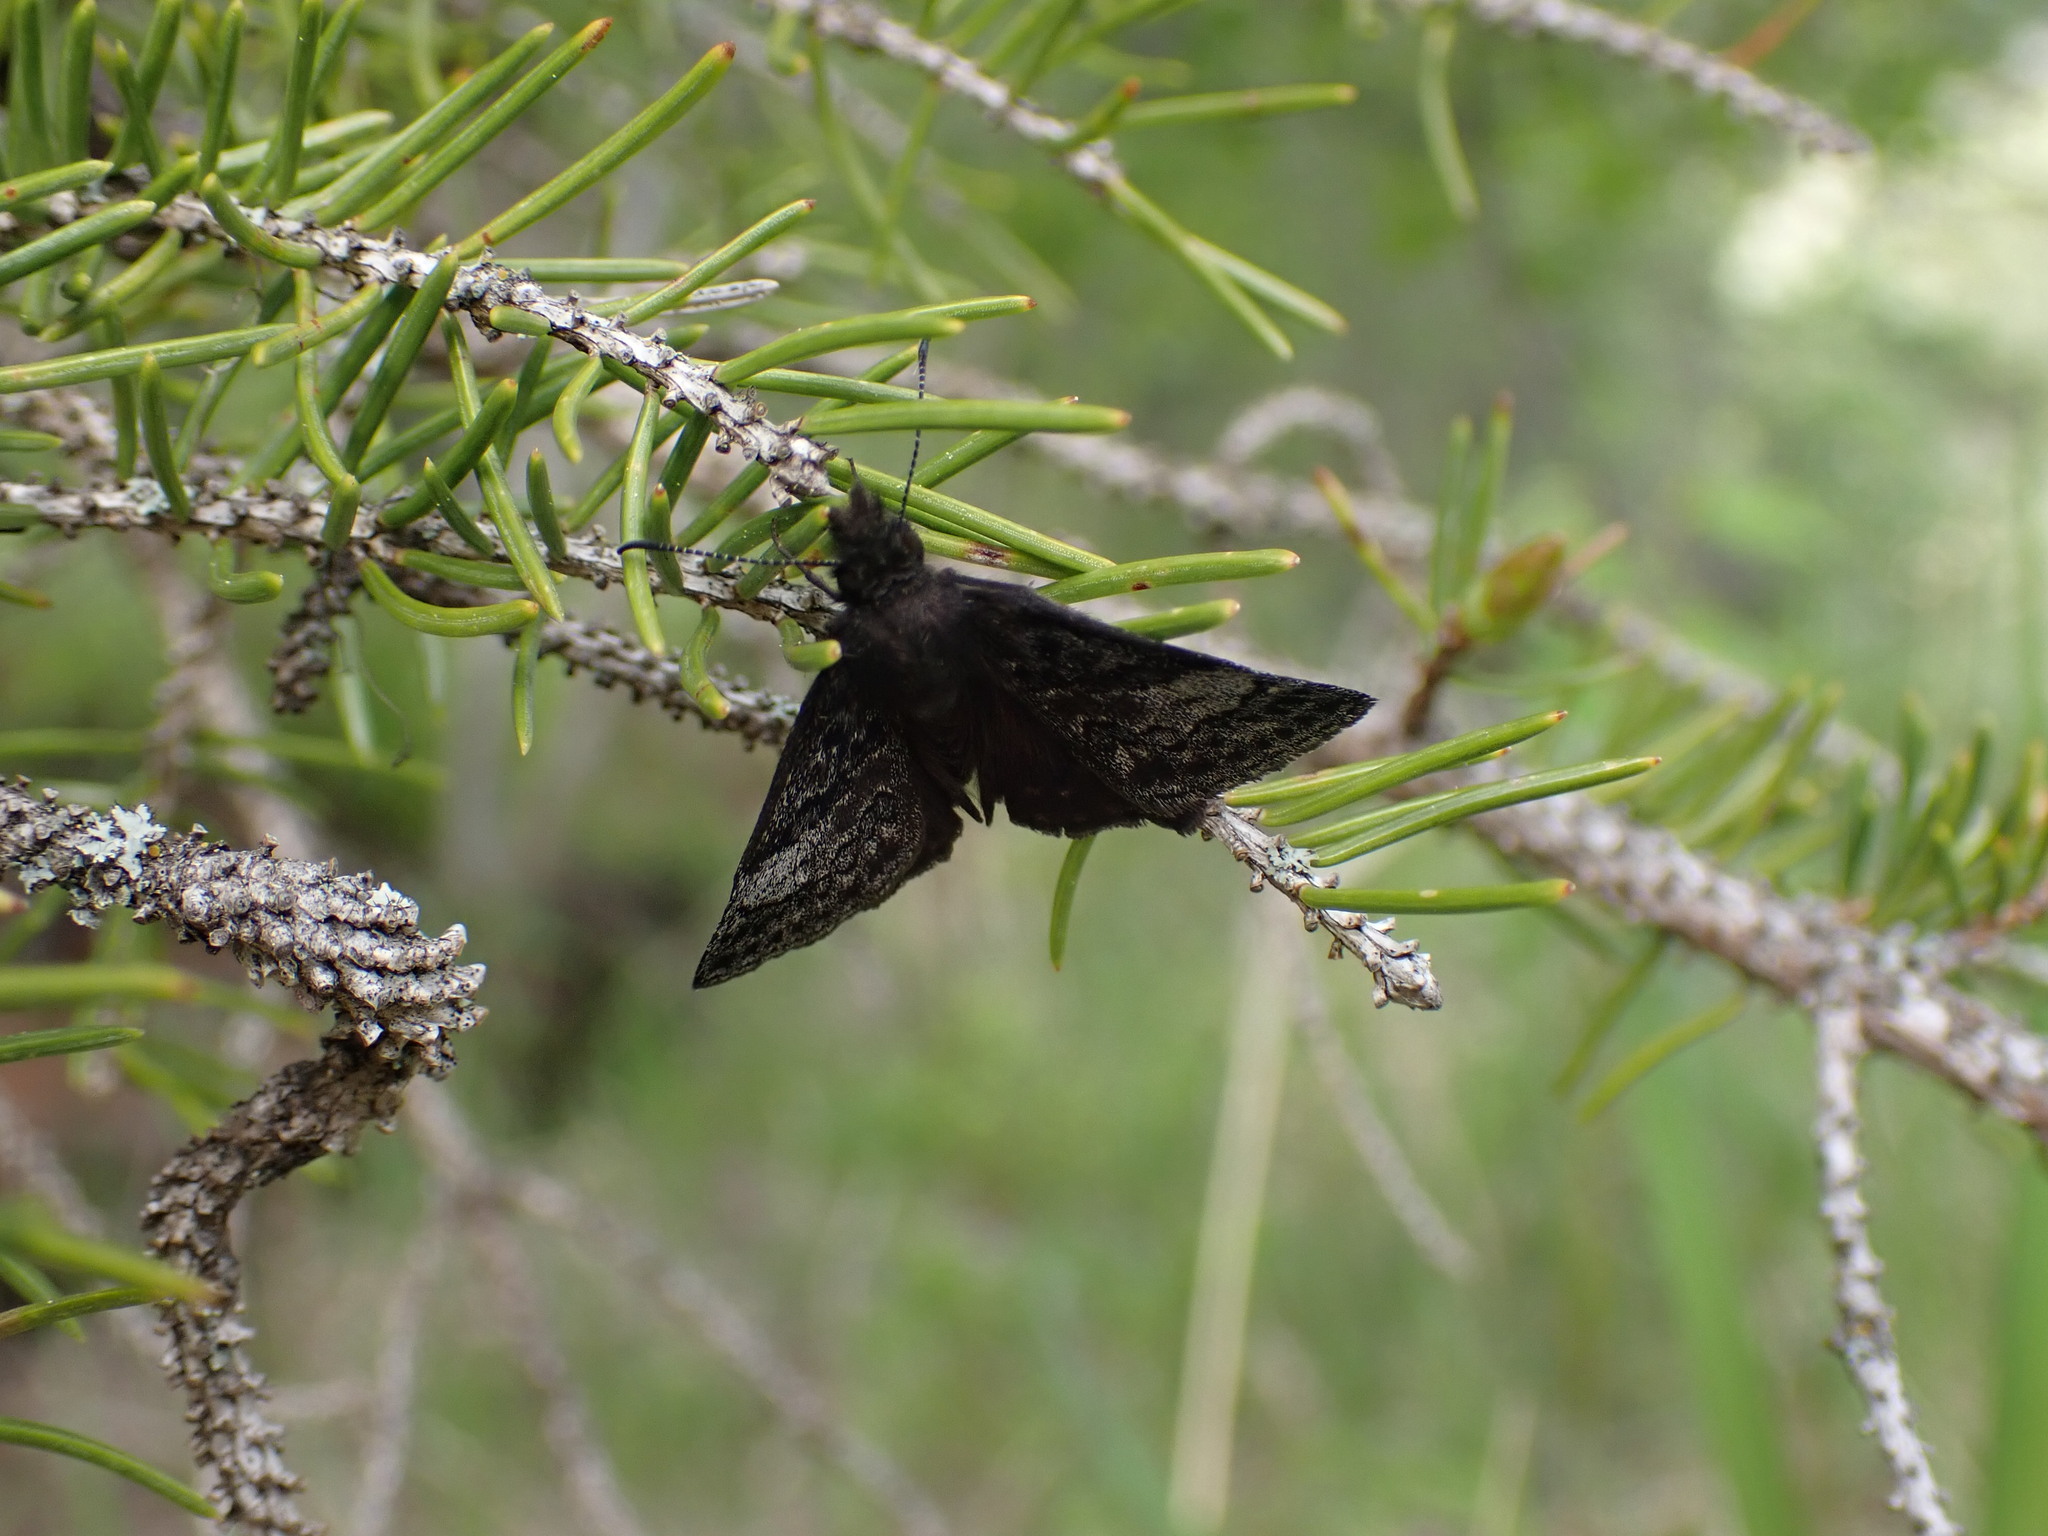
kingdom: Animalia
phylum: Arthropoda
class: Insecta
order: Lepidoptera
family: Hesperiidae
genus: Erynnis
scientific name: Erynnis icelus
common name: Dreamy duskywing
